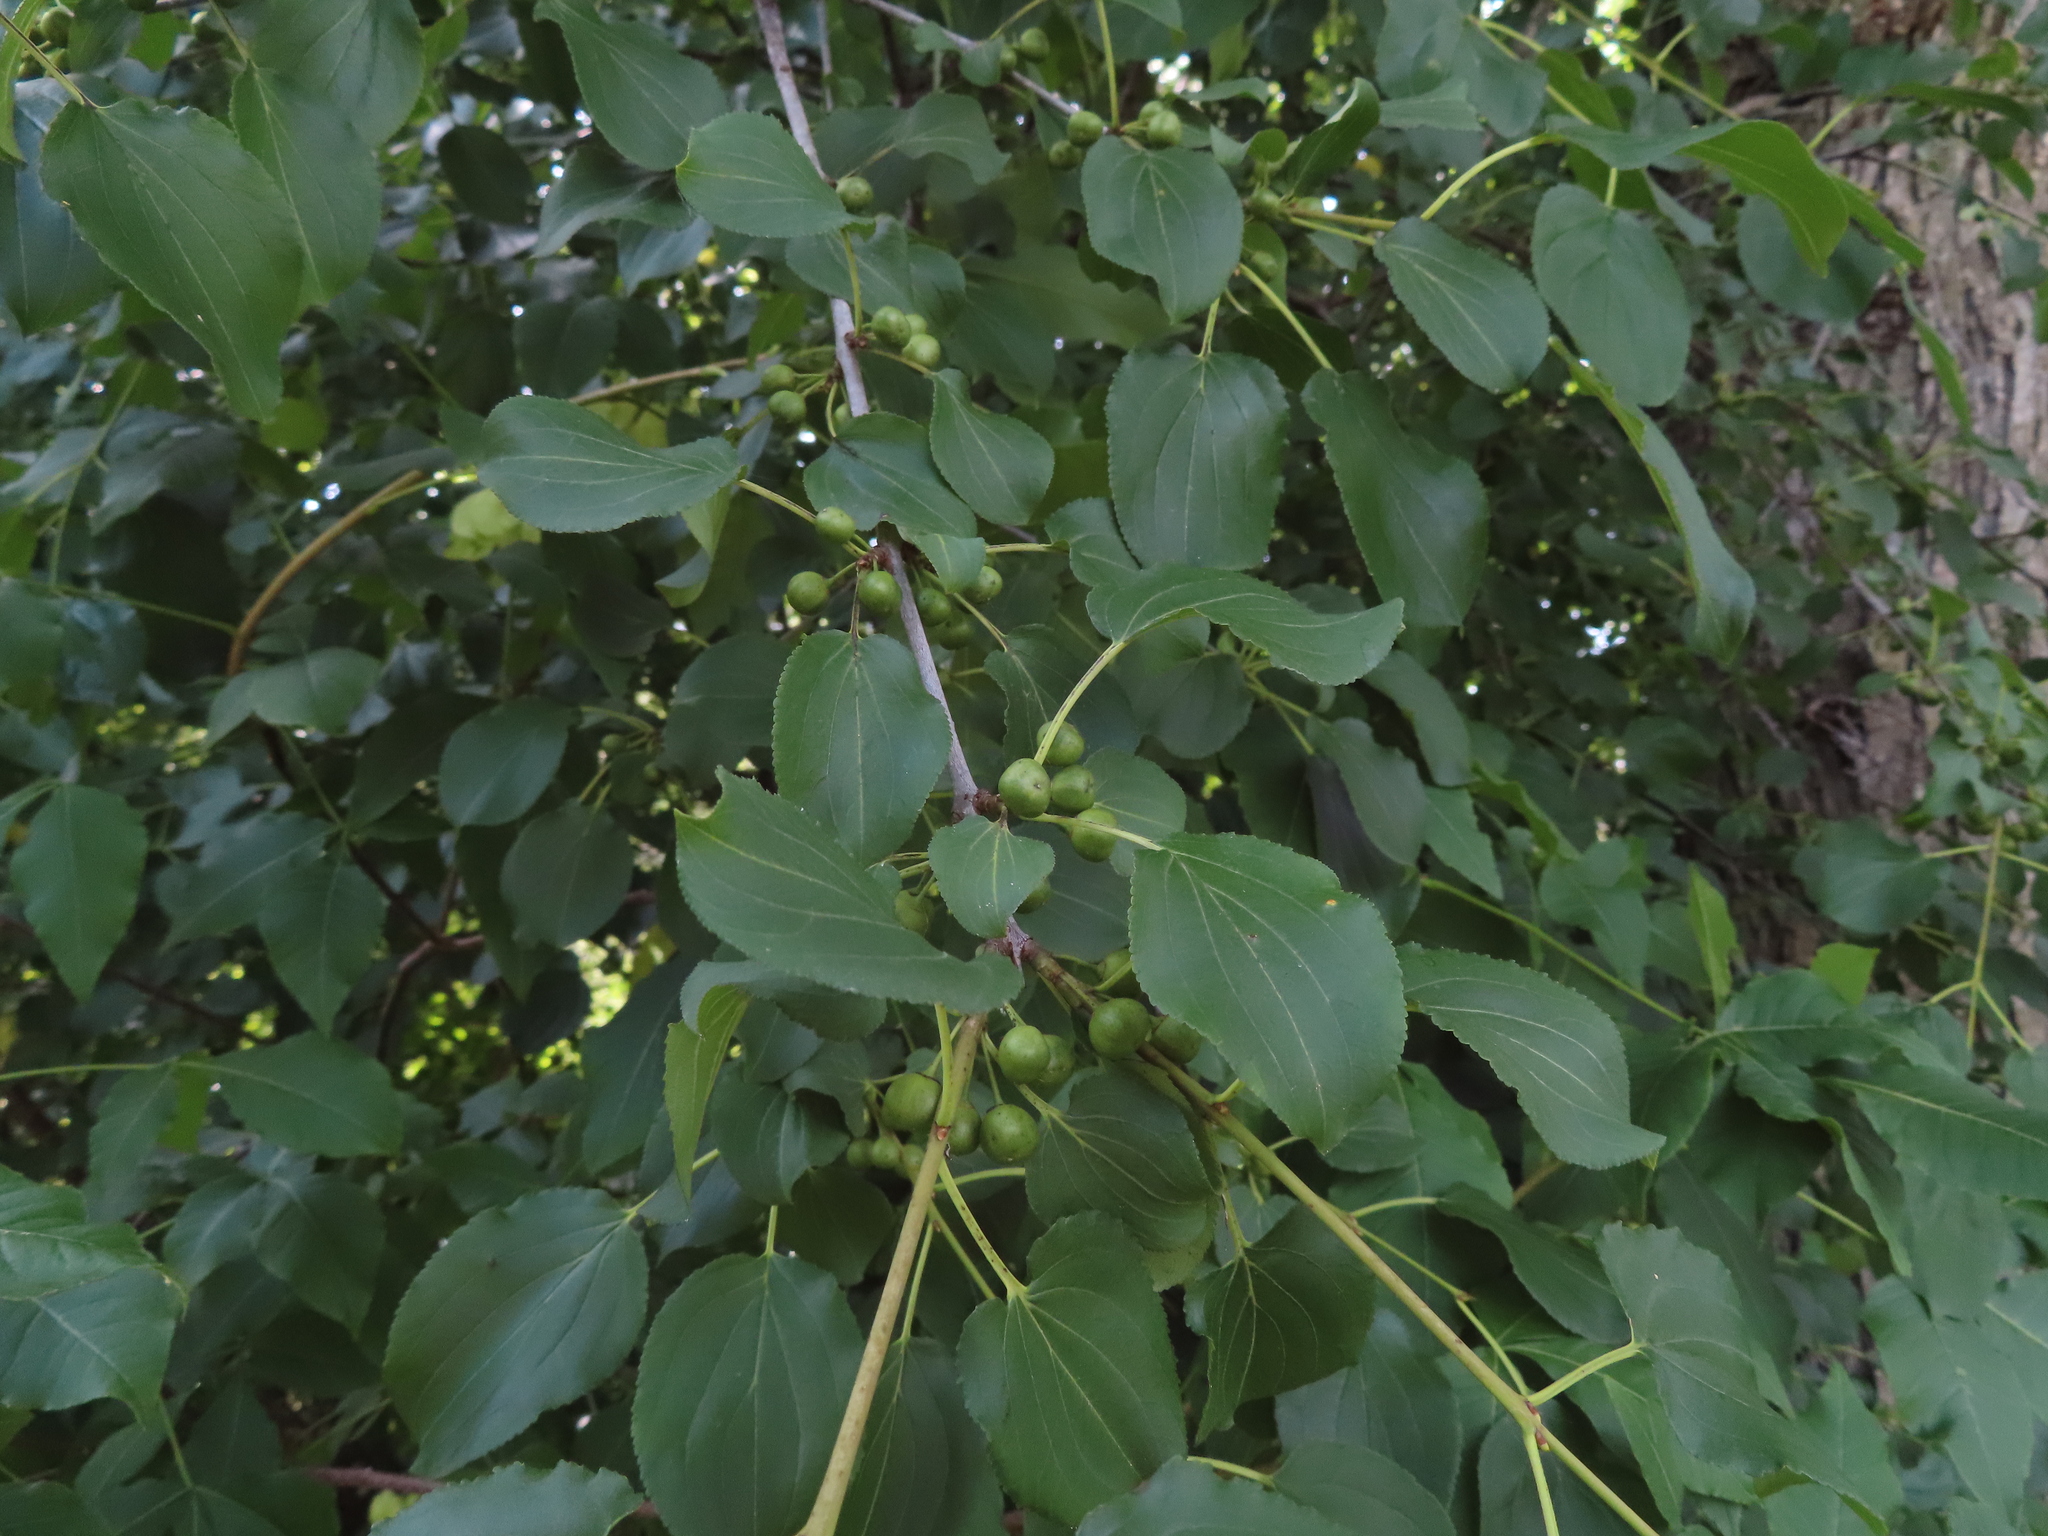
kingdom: Plantae
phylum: Tracheophyta
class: Magnoliopsida
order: Rosales
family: Rhamnaceae
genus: Rhamnus
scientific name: Rhamnus cathartica
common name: Common buckthorn
